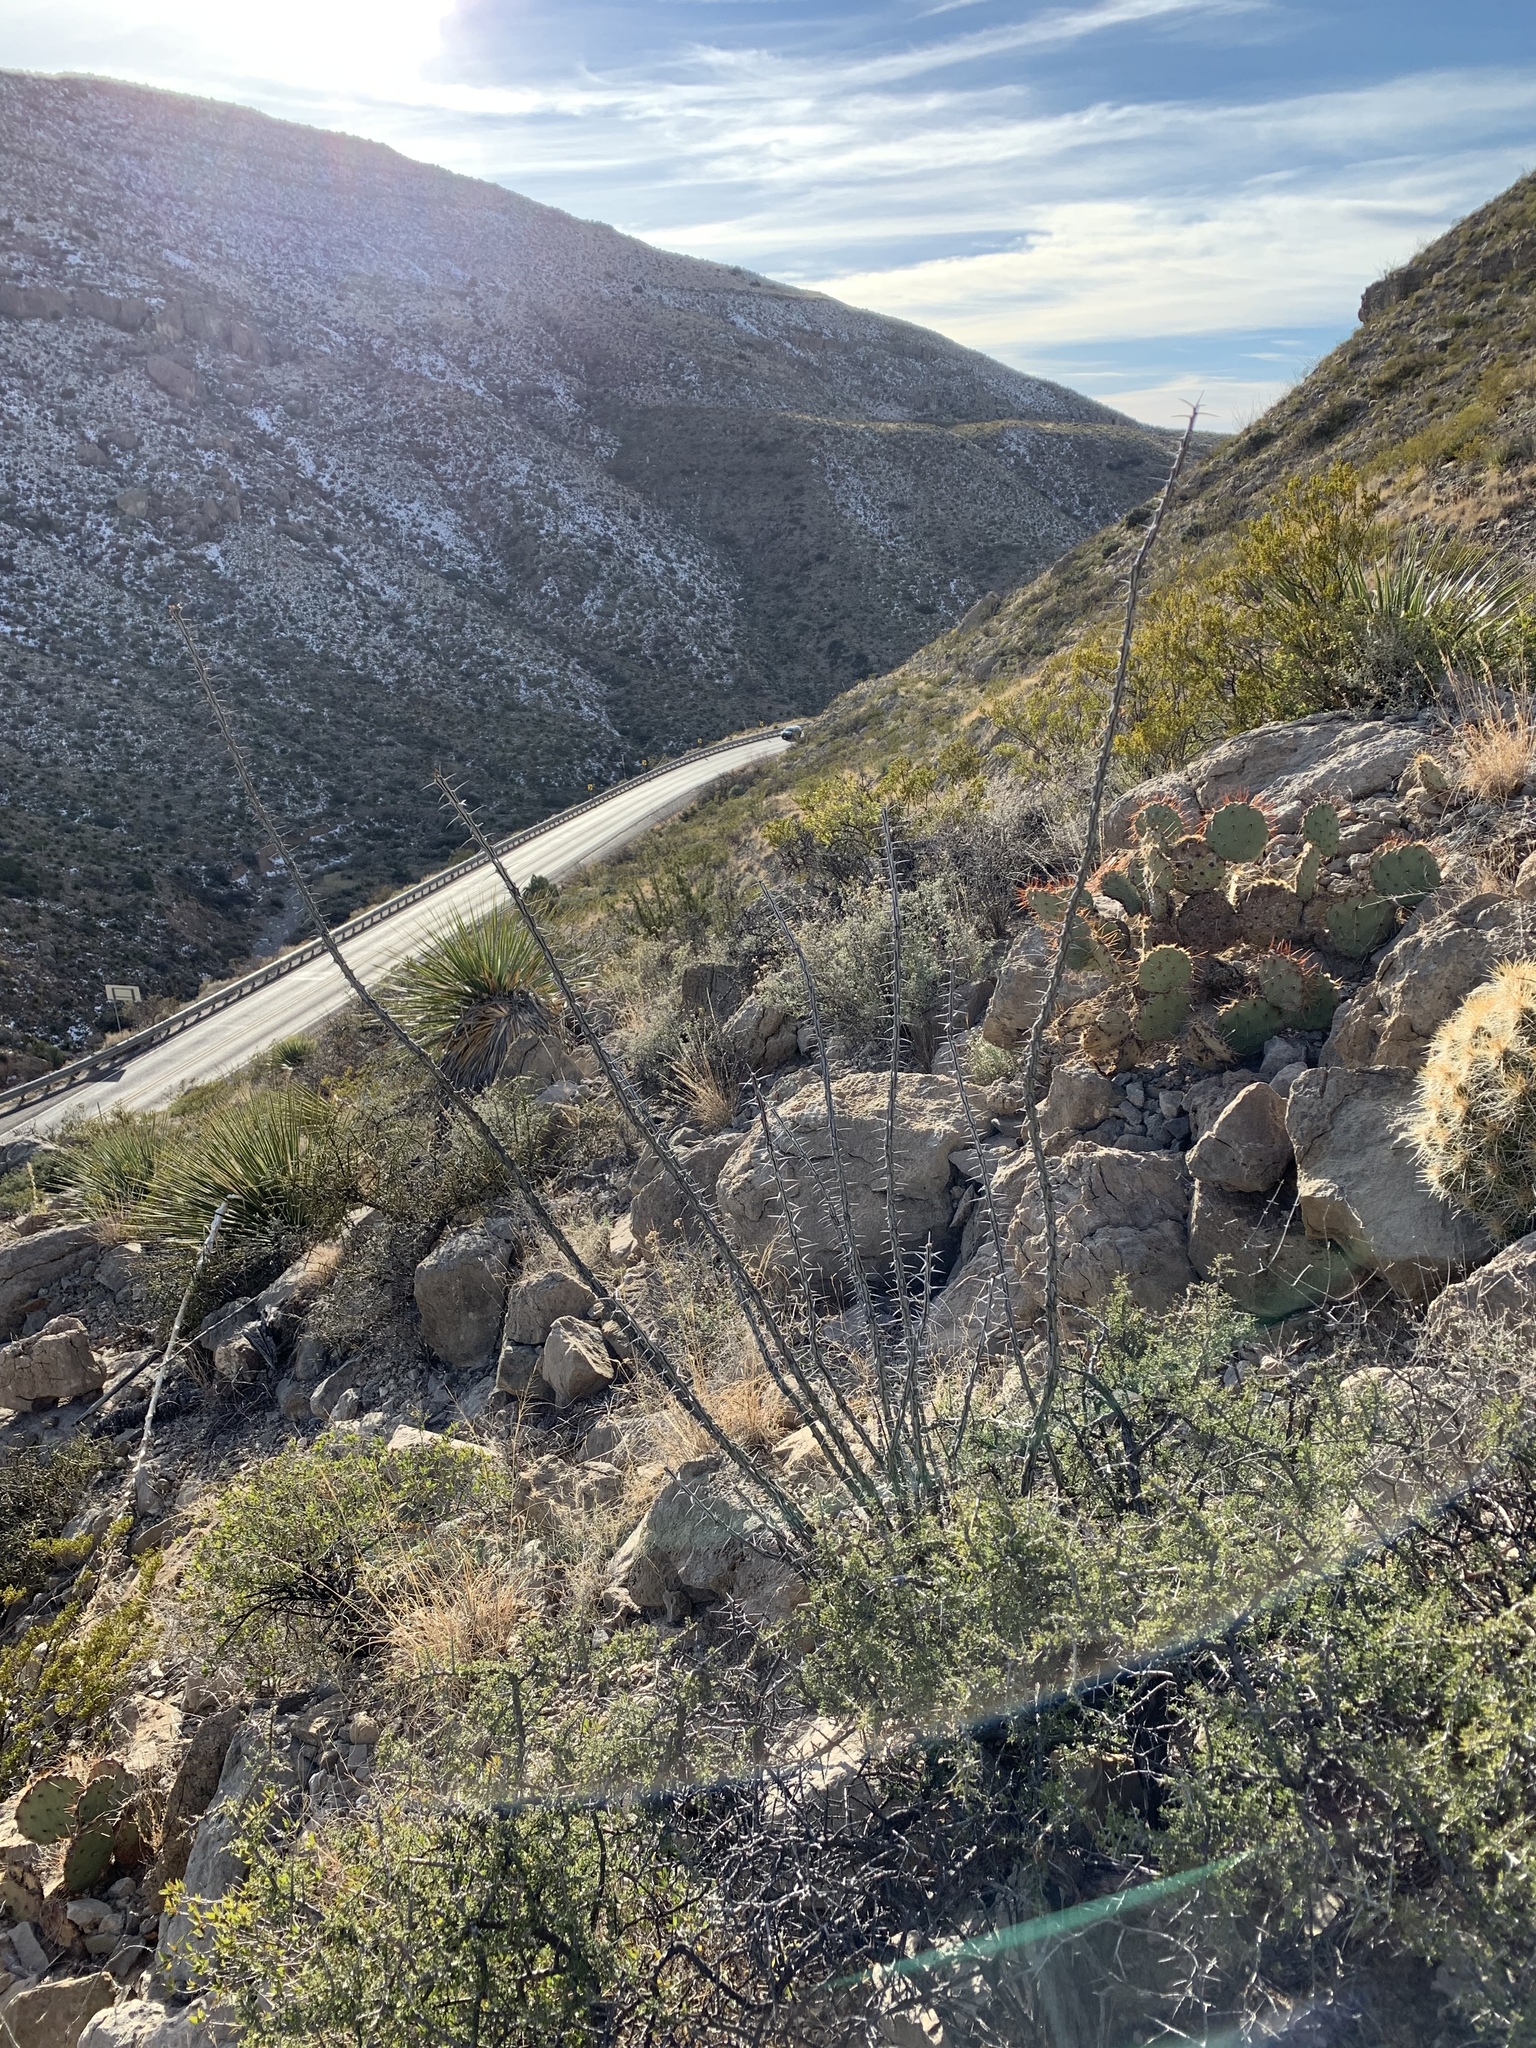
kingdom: Plantae
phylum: Tracheophyta
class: Magnoliopsida
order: Ericales
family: Fouquieriaceae
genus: Fouquieria
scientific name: Fouquieria splendens
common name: Vine-cactus
